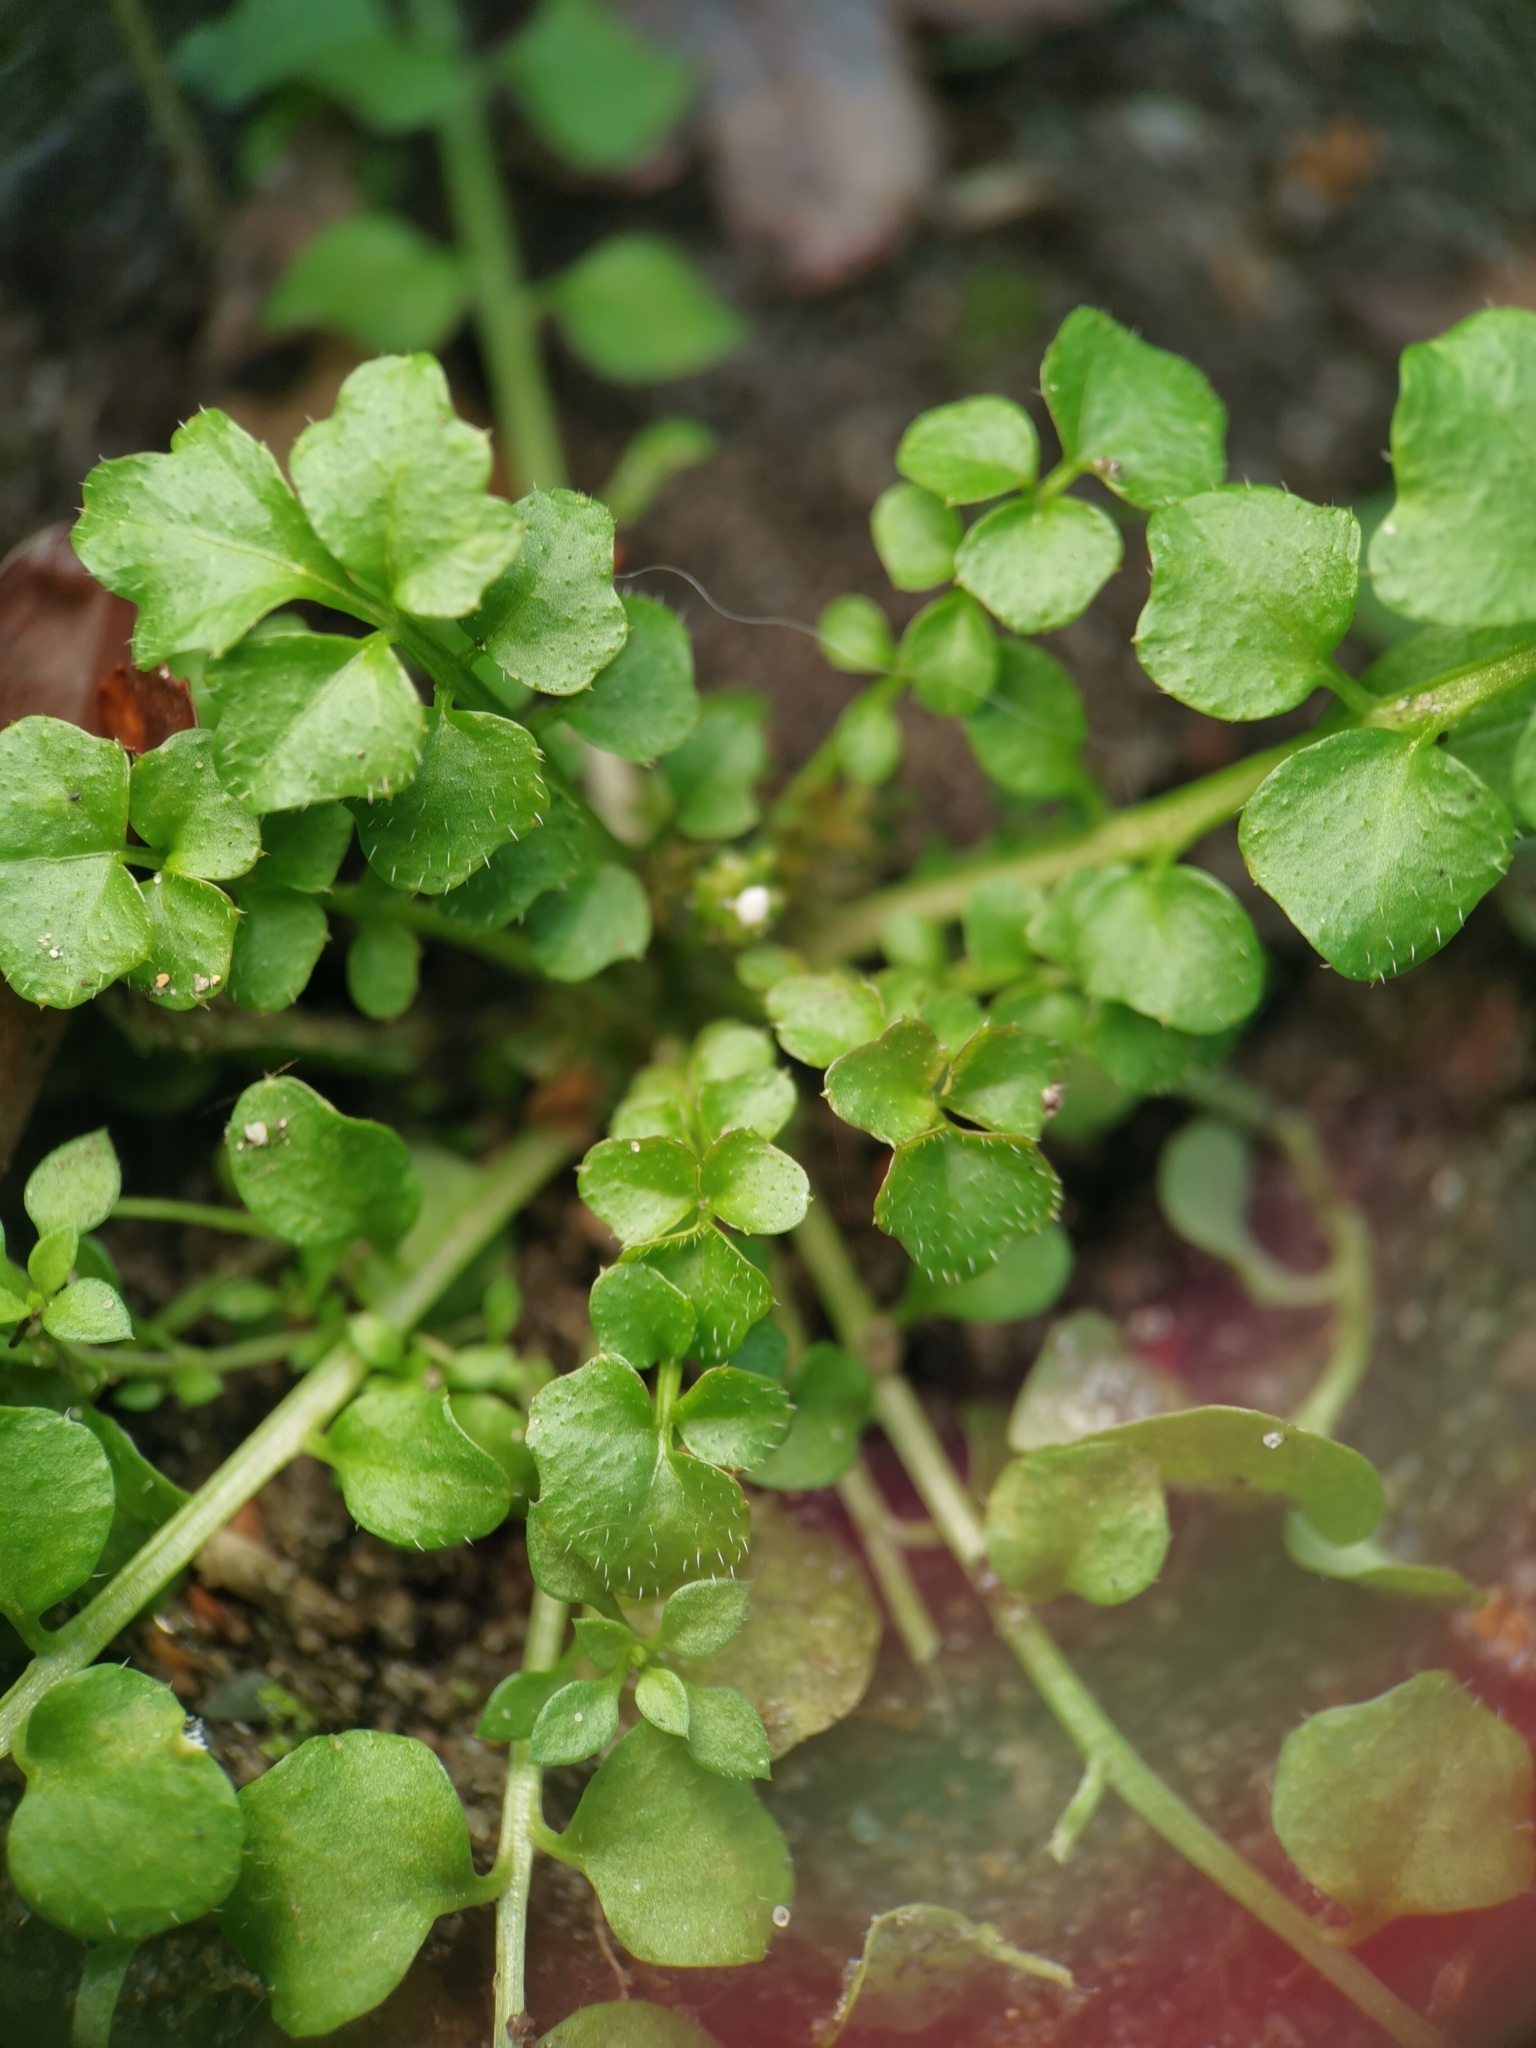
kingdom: Plantae
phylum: Tracheophyta
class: Magnoliopsida
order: Brassicales
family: Brassicaceae
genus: Cardamine
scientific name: Cardamine hirsuta
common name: Hairy bittercress
